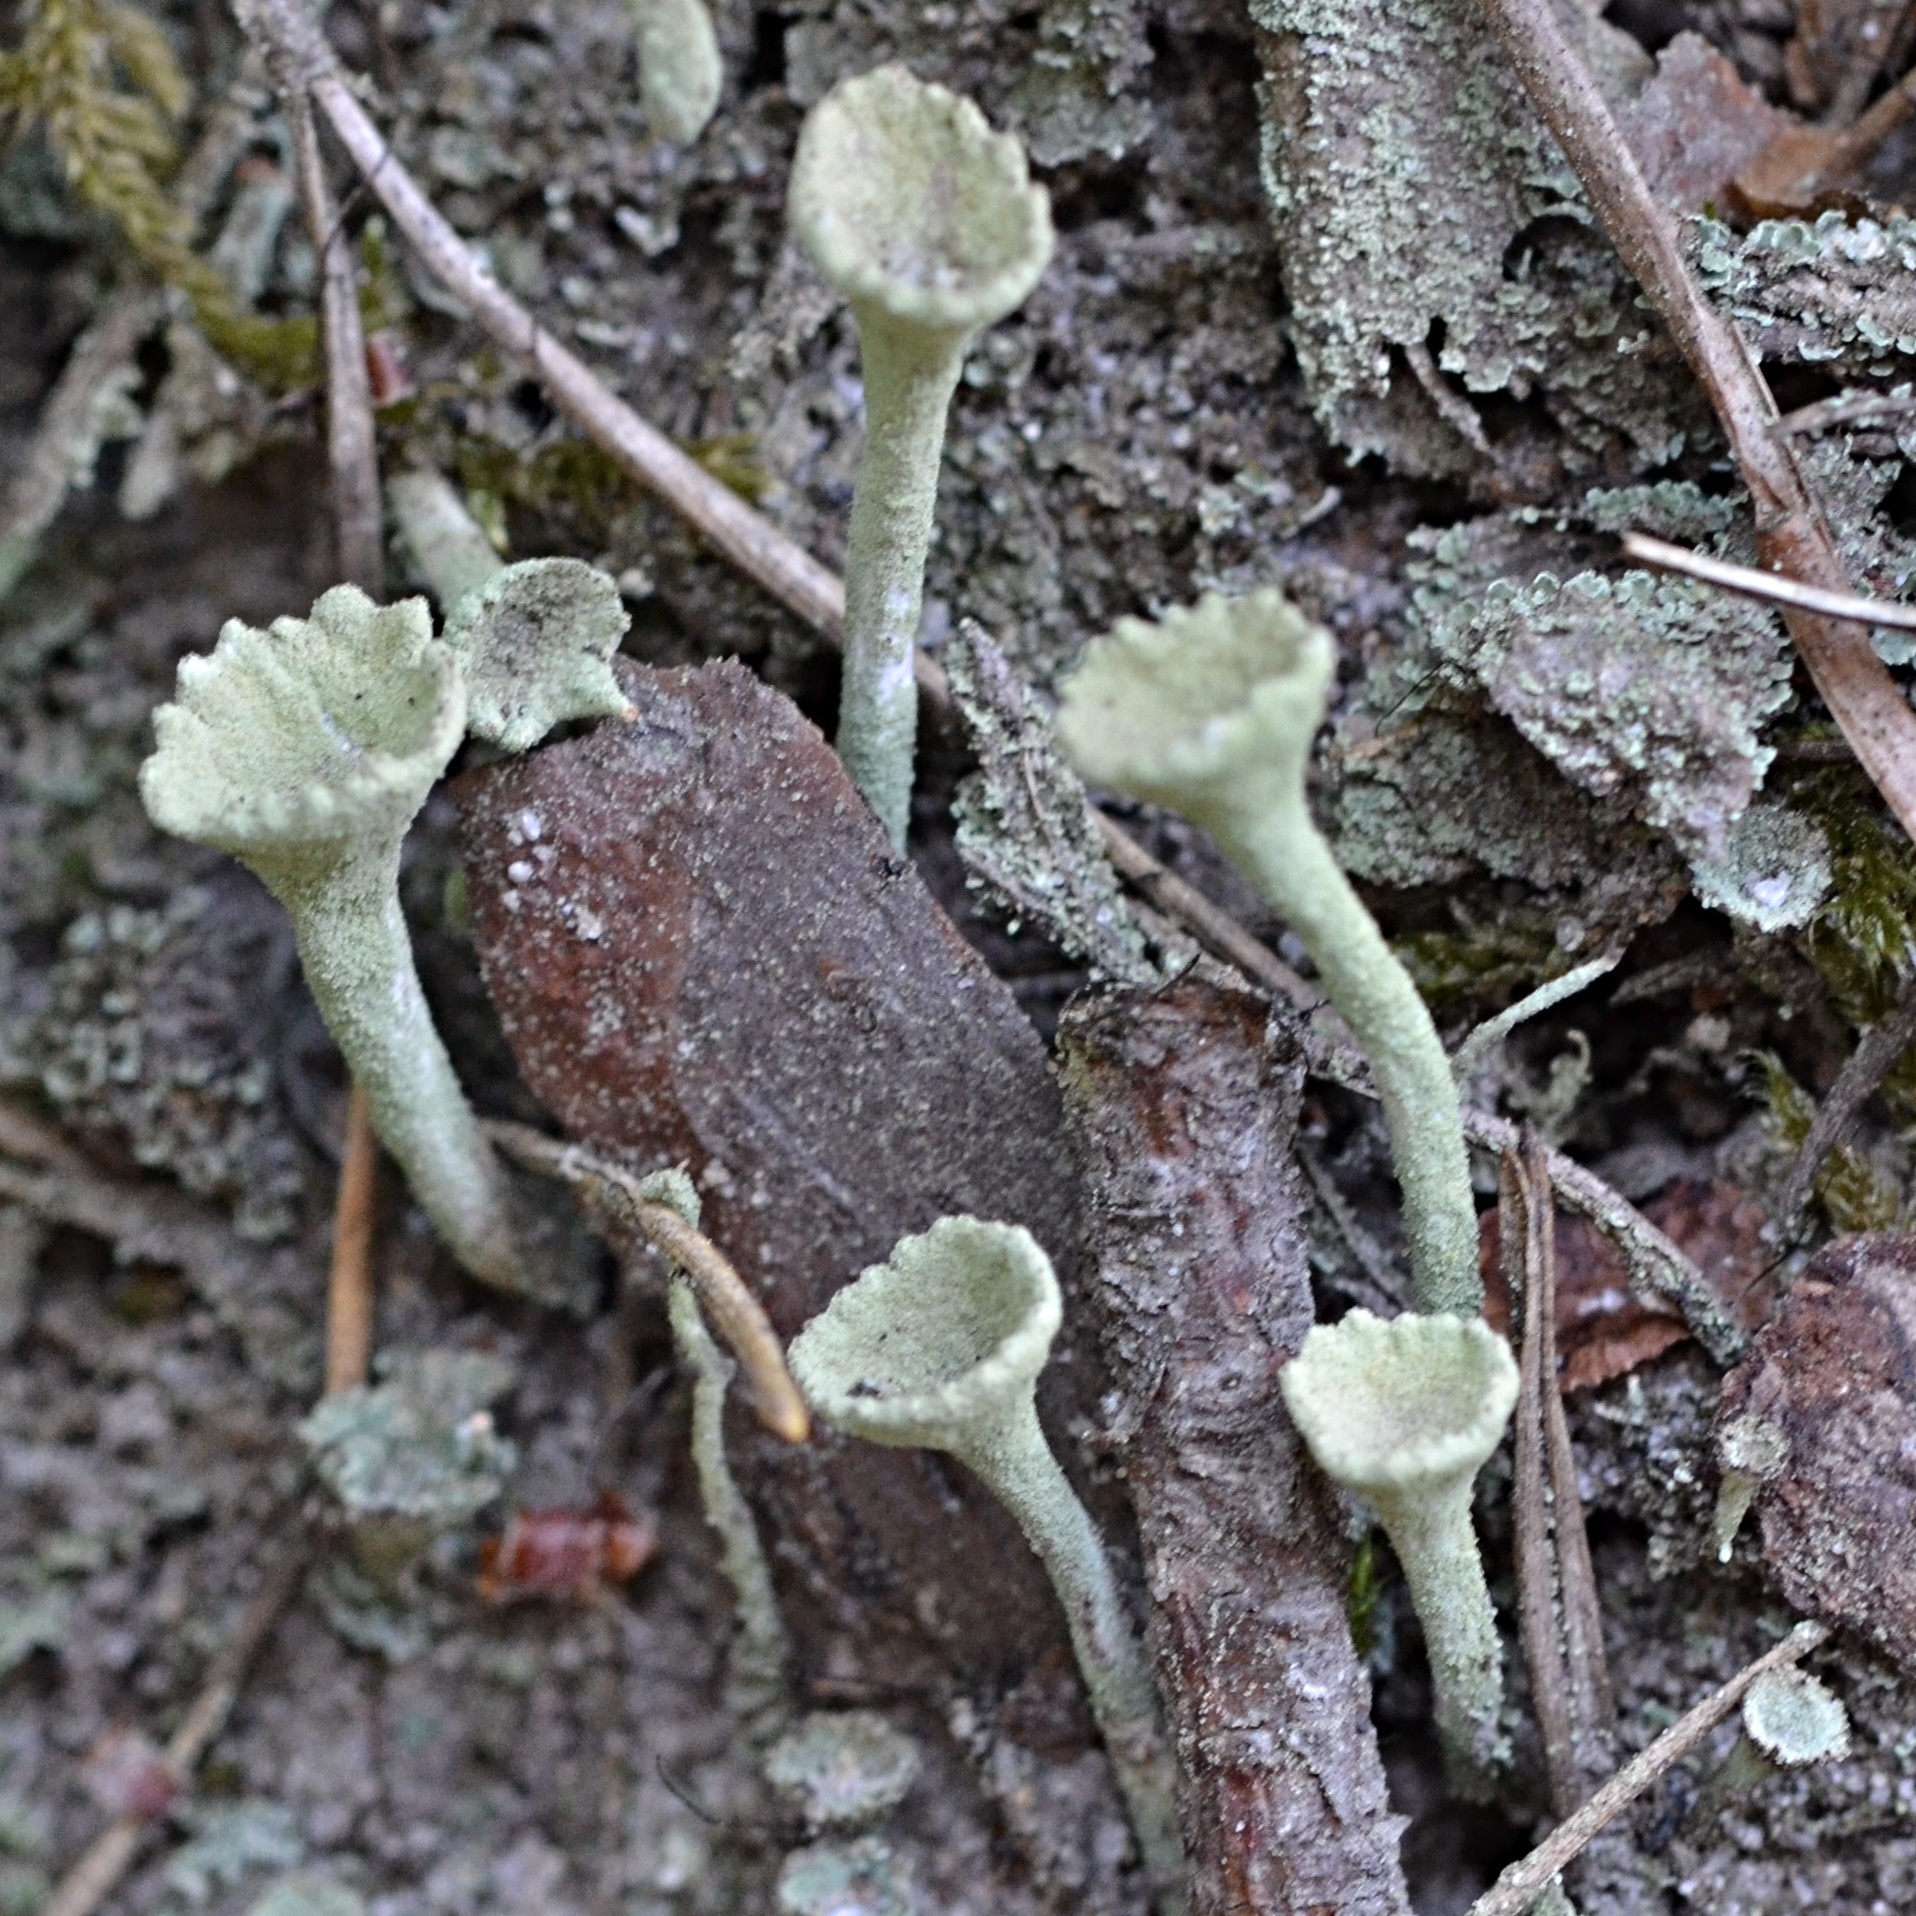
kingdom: Fungi
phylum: Ascomycota
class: Lecanoromycetes
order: Lecanorales
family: Cladoniaceae
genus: Cladonia
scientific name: Cladonia fimbriata
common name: Powdered trumpet lichen
